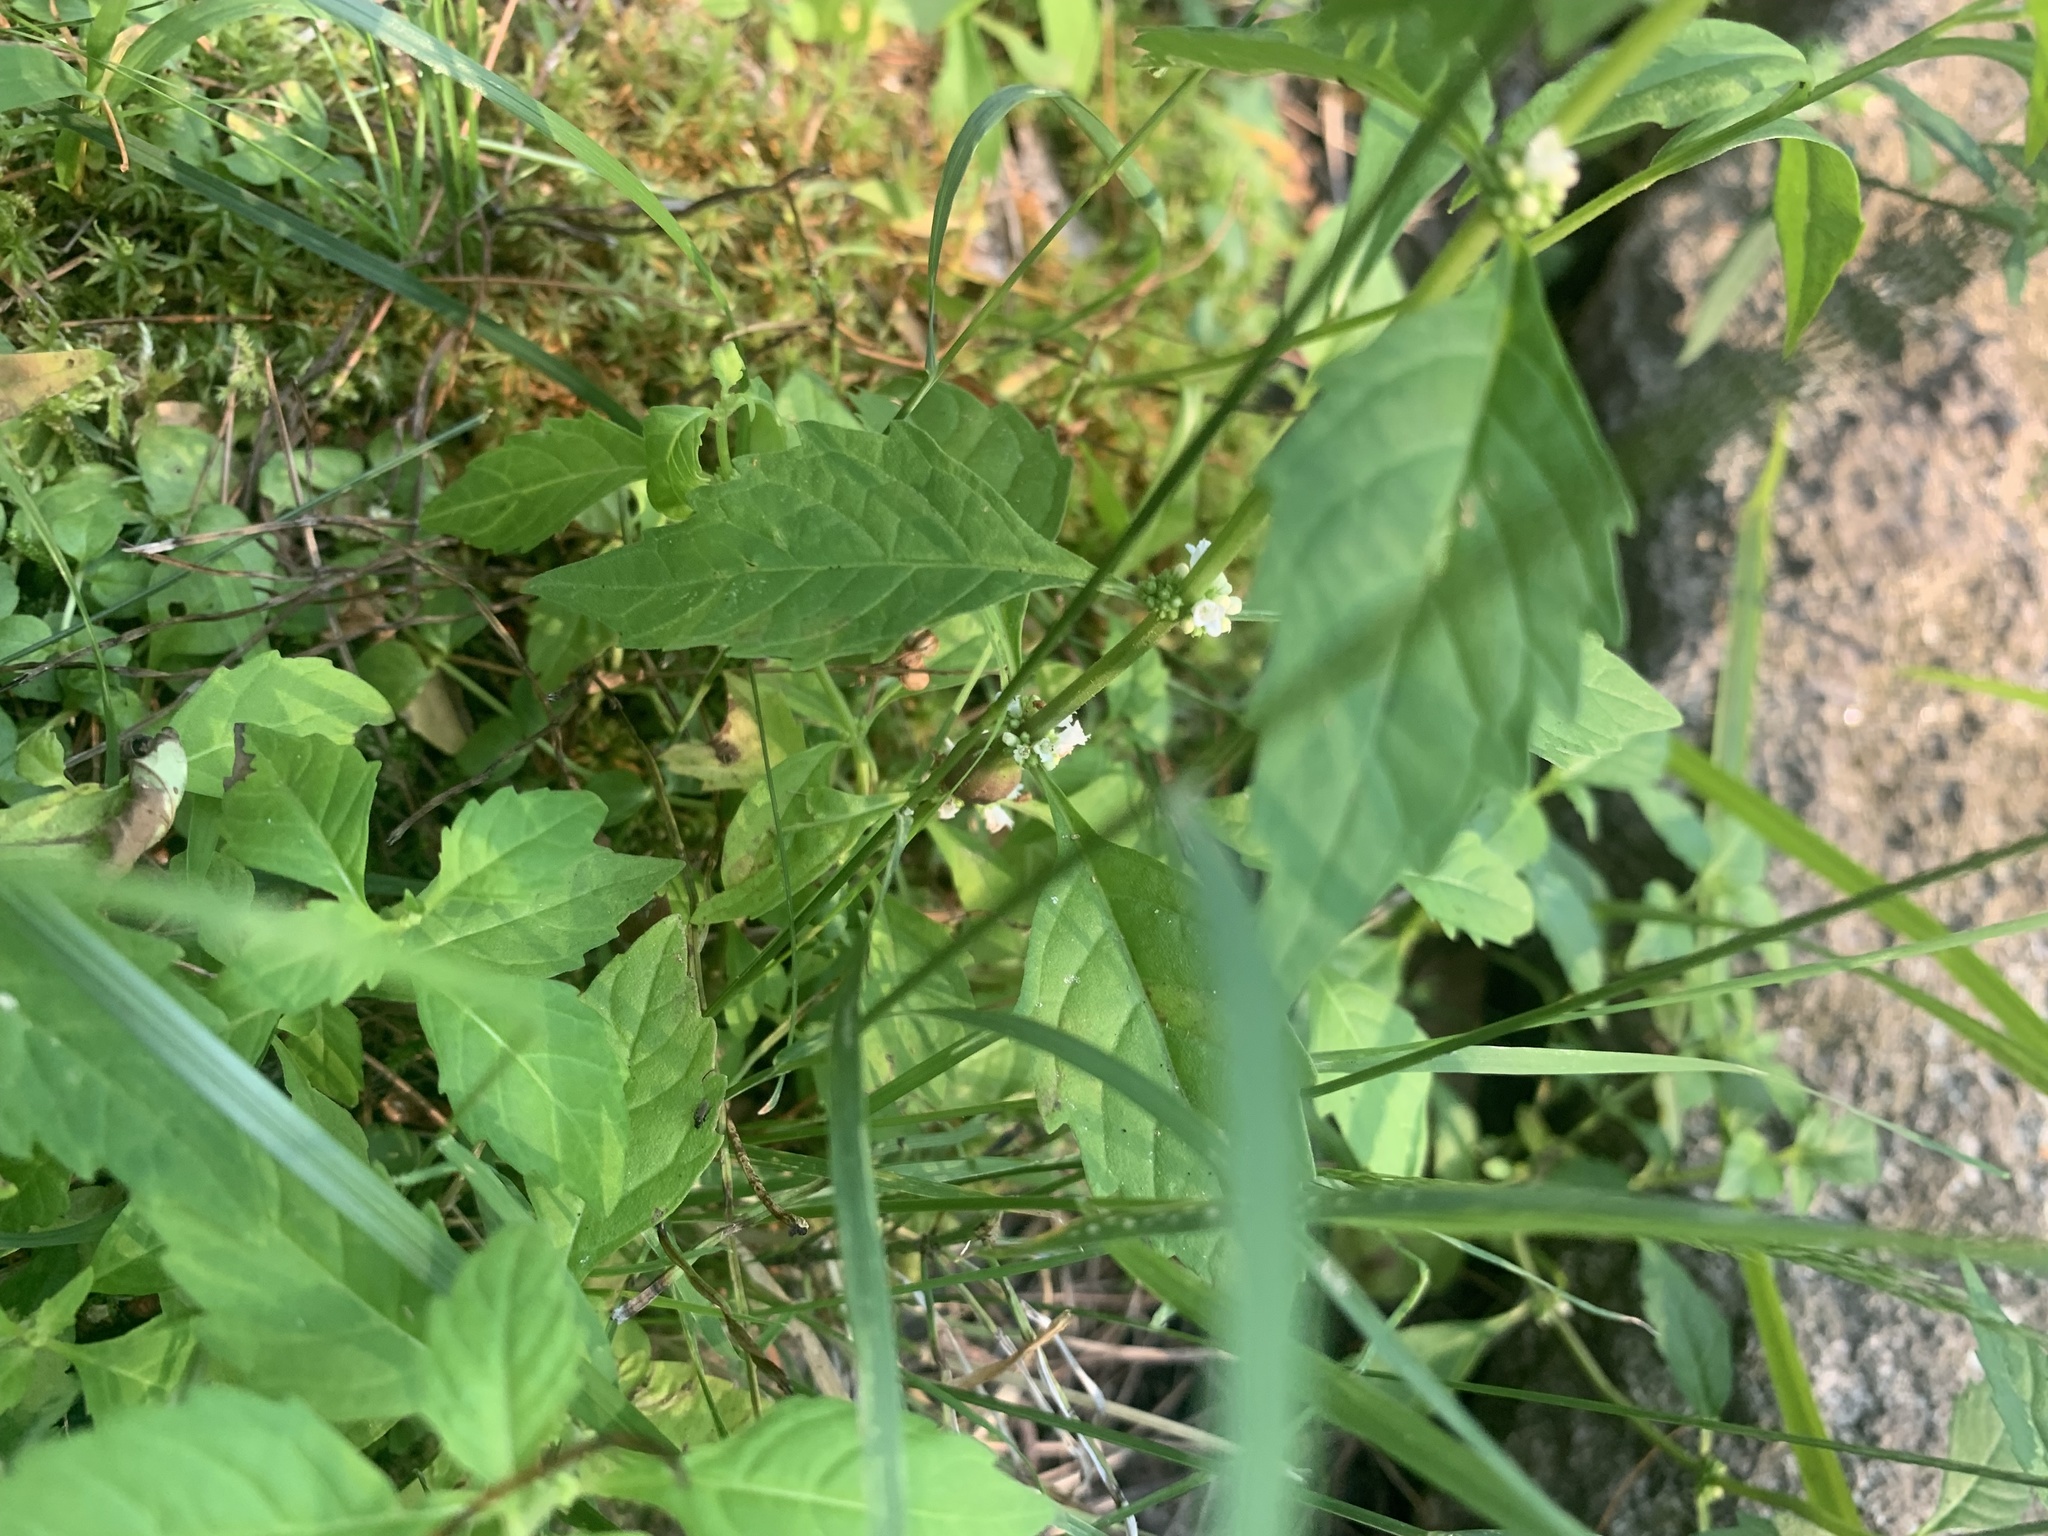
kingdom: Plantae
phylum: Tracheophyta
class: Magnoliopsida
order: Lamiales
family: Lamiaceae
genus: Lycopus
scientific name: Lycopus uniflorus
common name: Northern bugleweed
